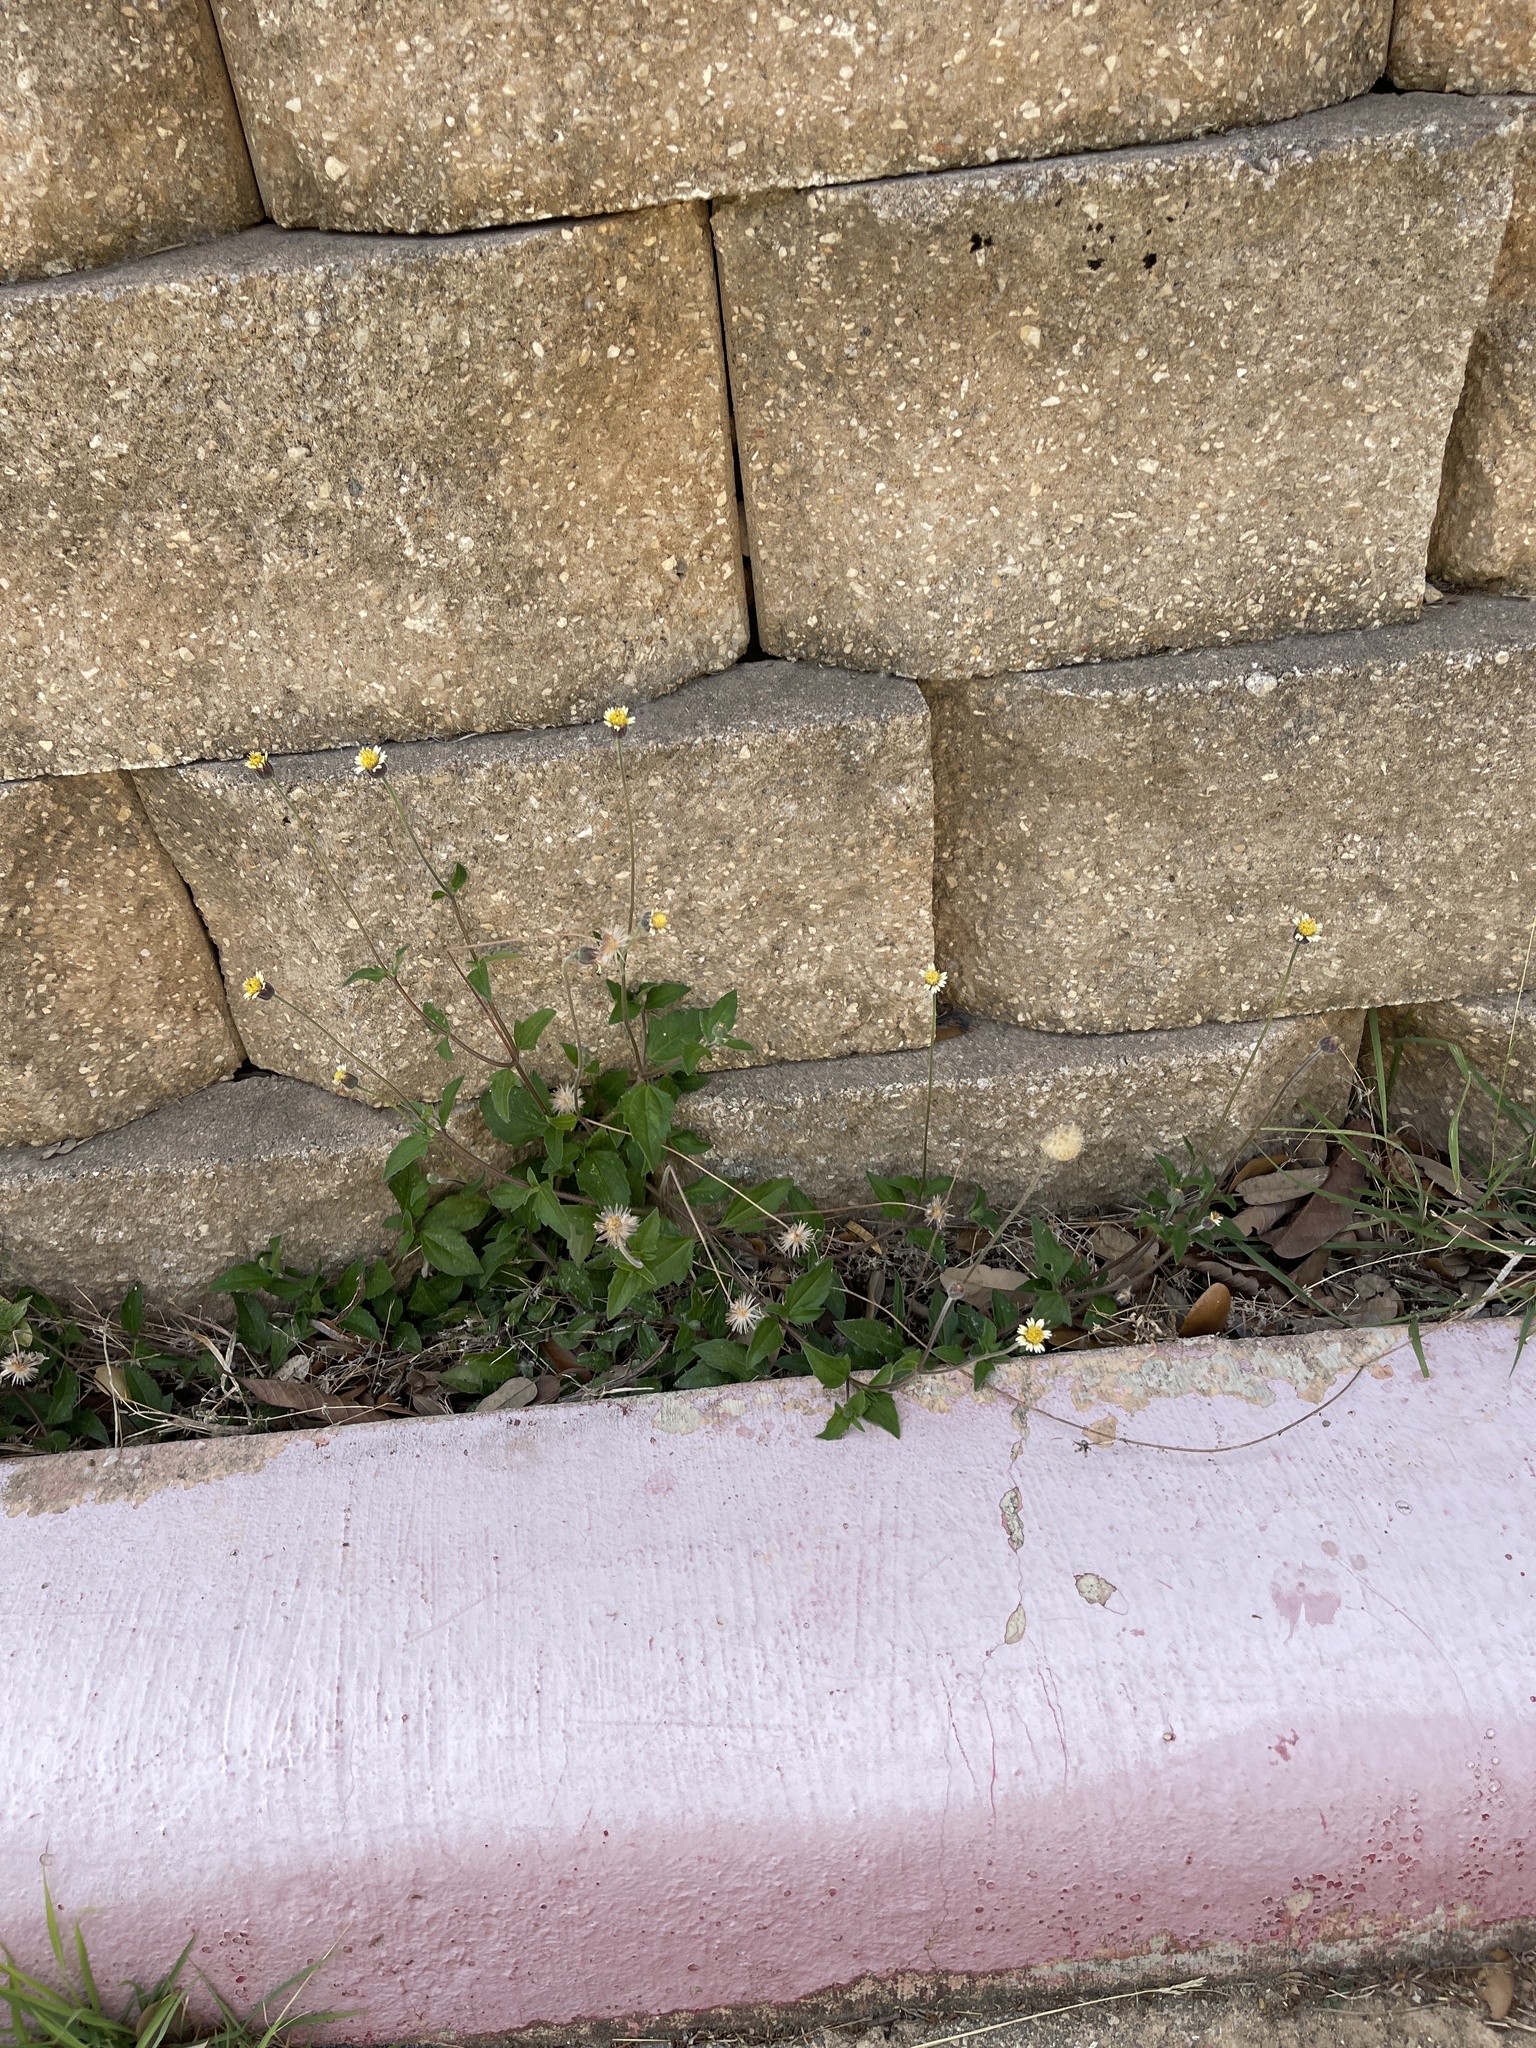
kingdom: Plantae
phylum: Tracheophyta
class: Magnoliopsida
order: Asterales
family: Asteraceae
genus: Tridax
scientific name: Tridax procumbens
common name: Coatbuttons
